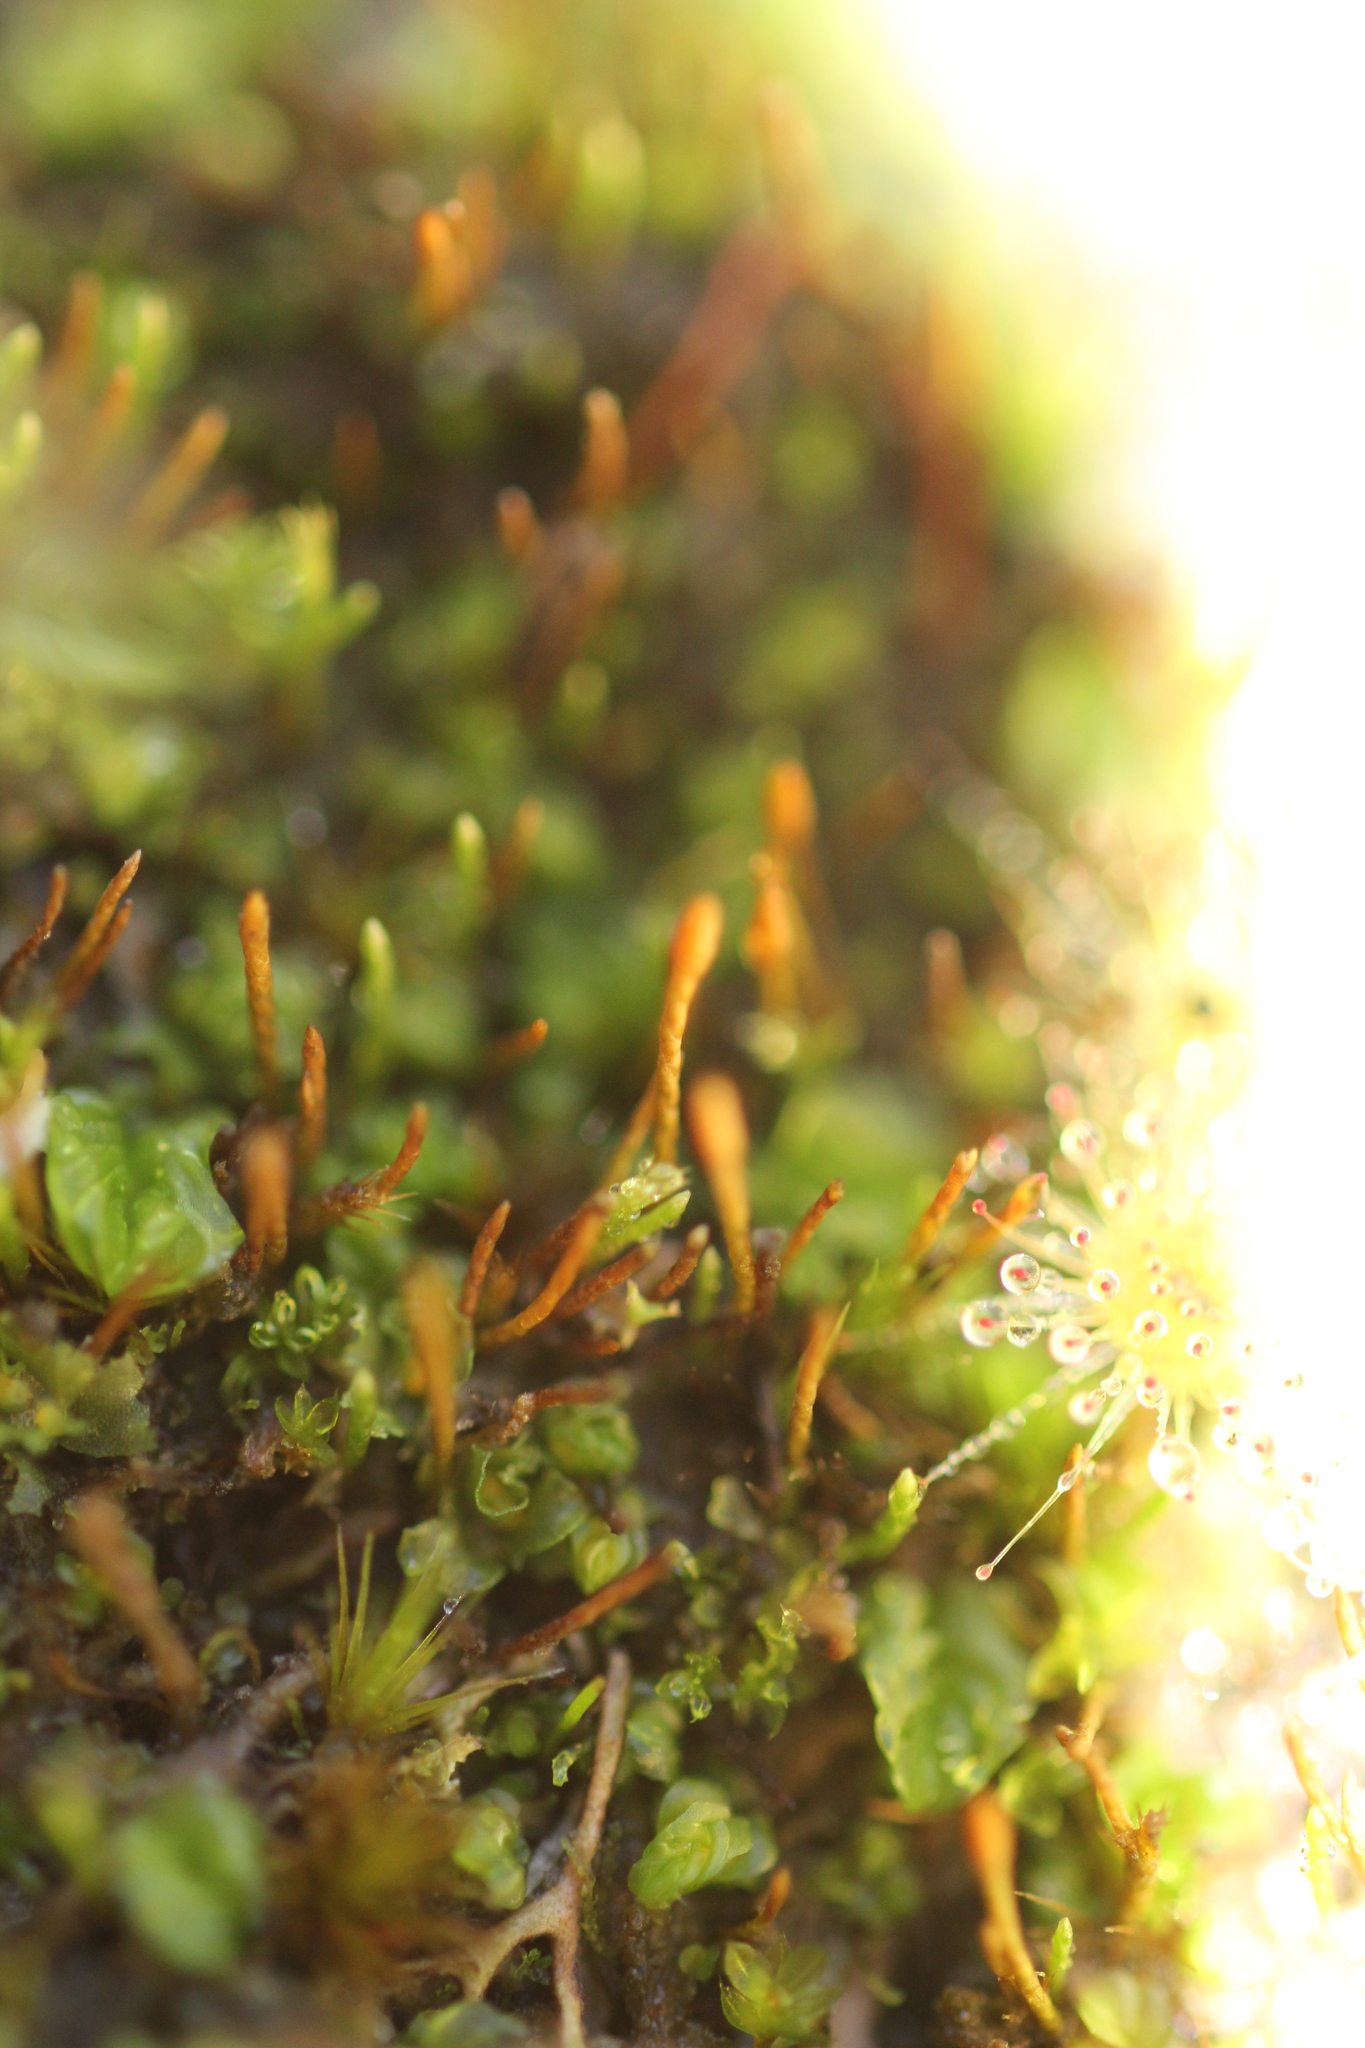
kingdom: Plantae
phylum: Bryophyta
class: Bryopsida
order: Dicranales
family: Dicranellaceae
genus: Eccremidium
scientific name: Eccremidium pulchellum
